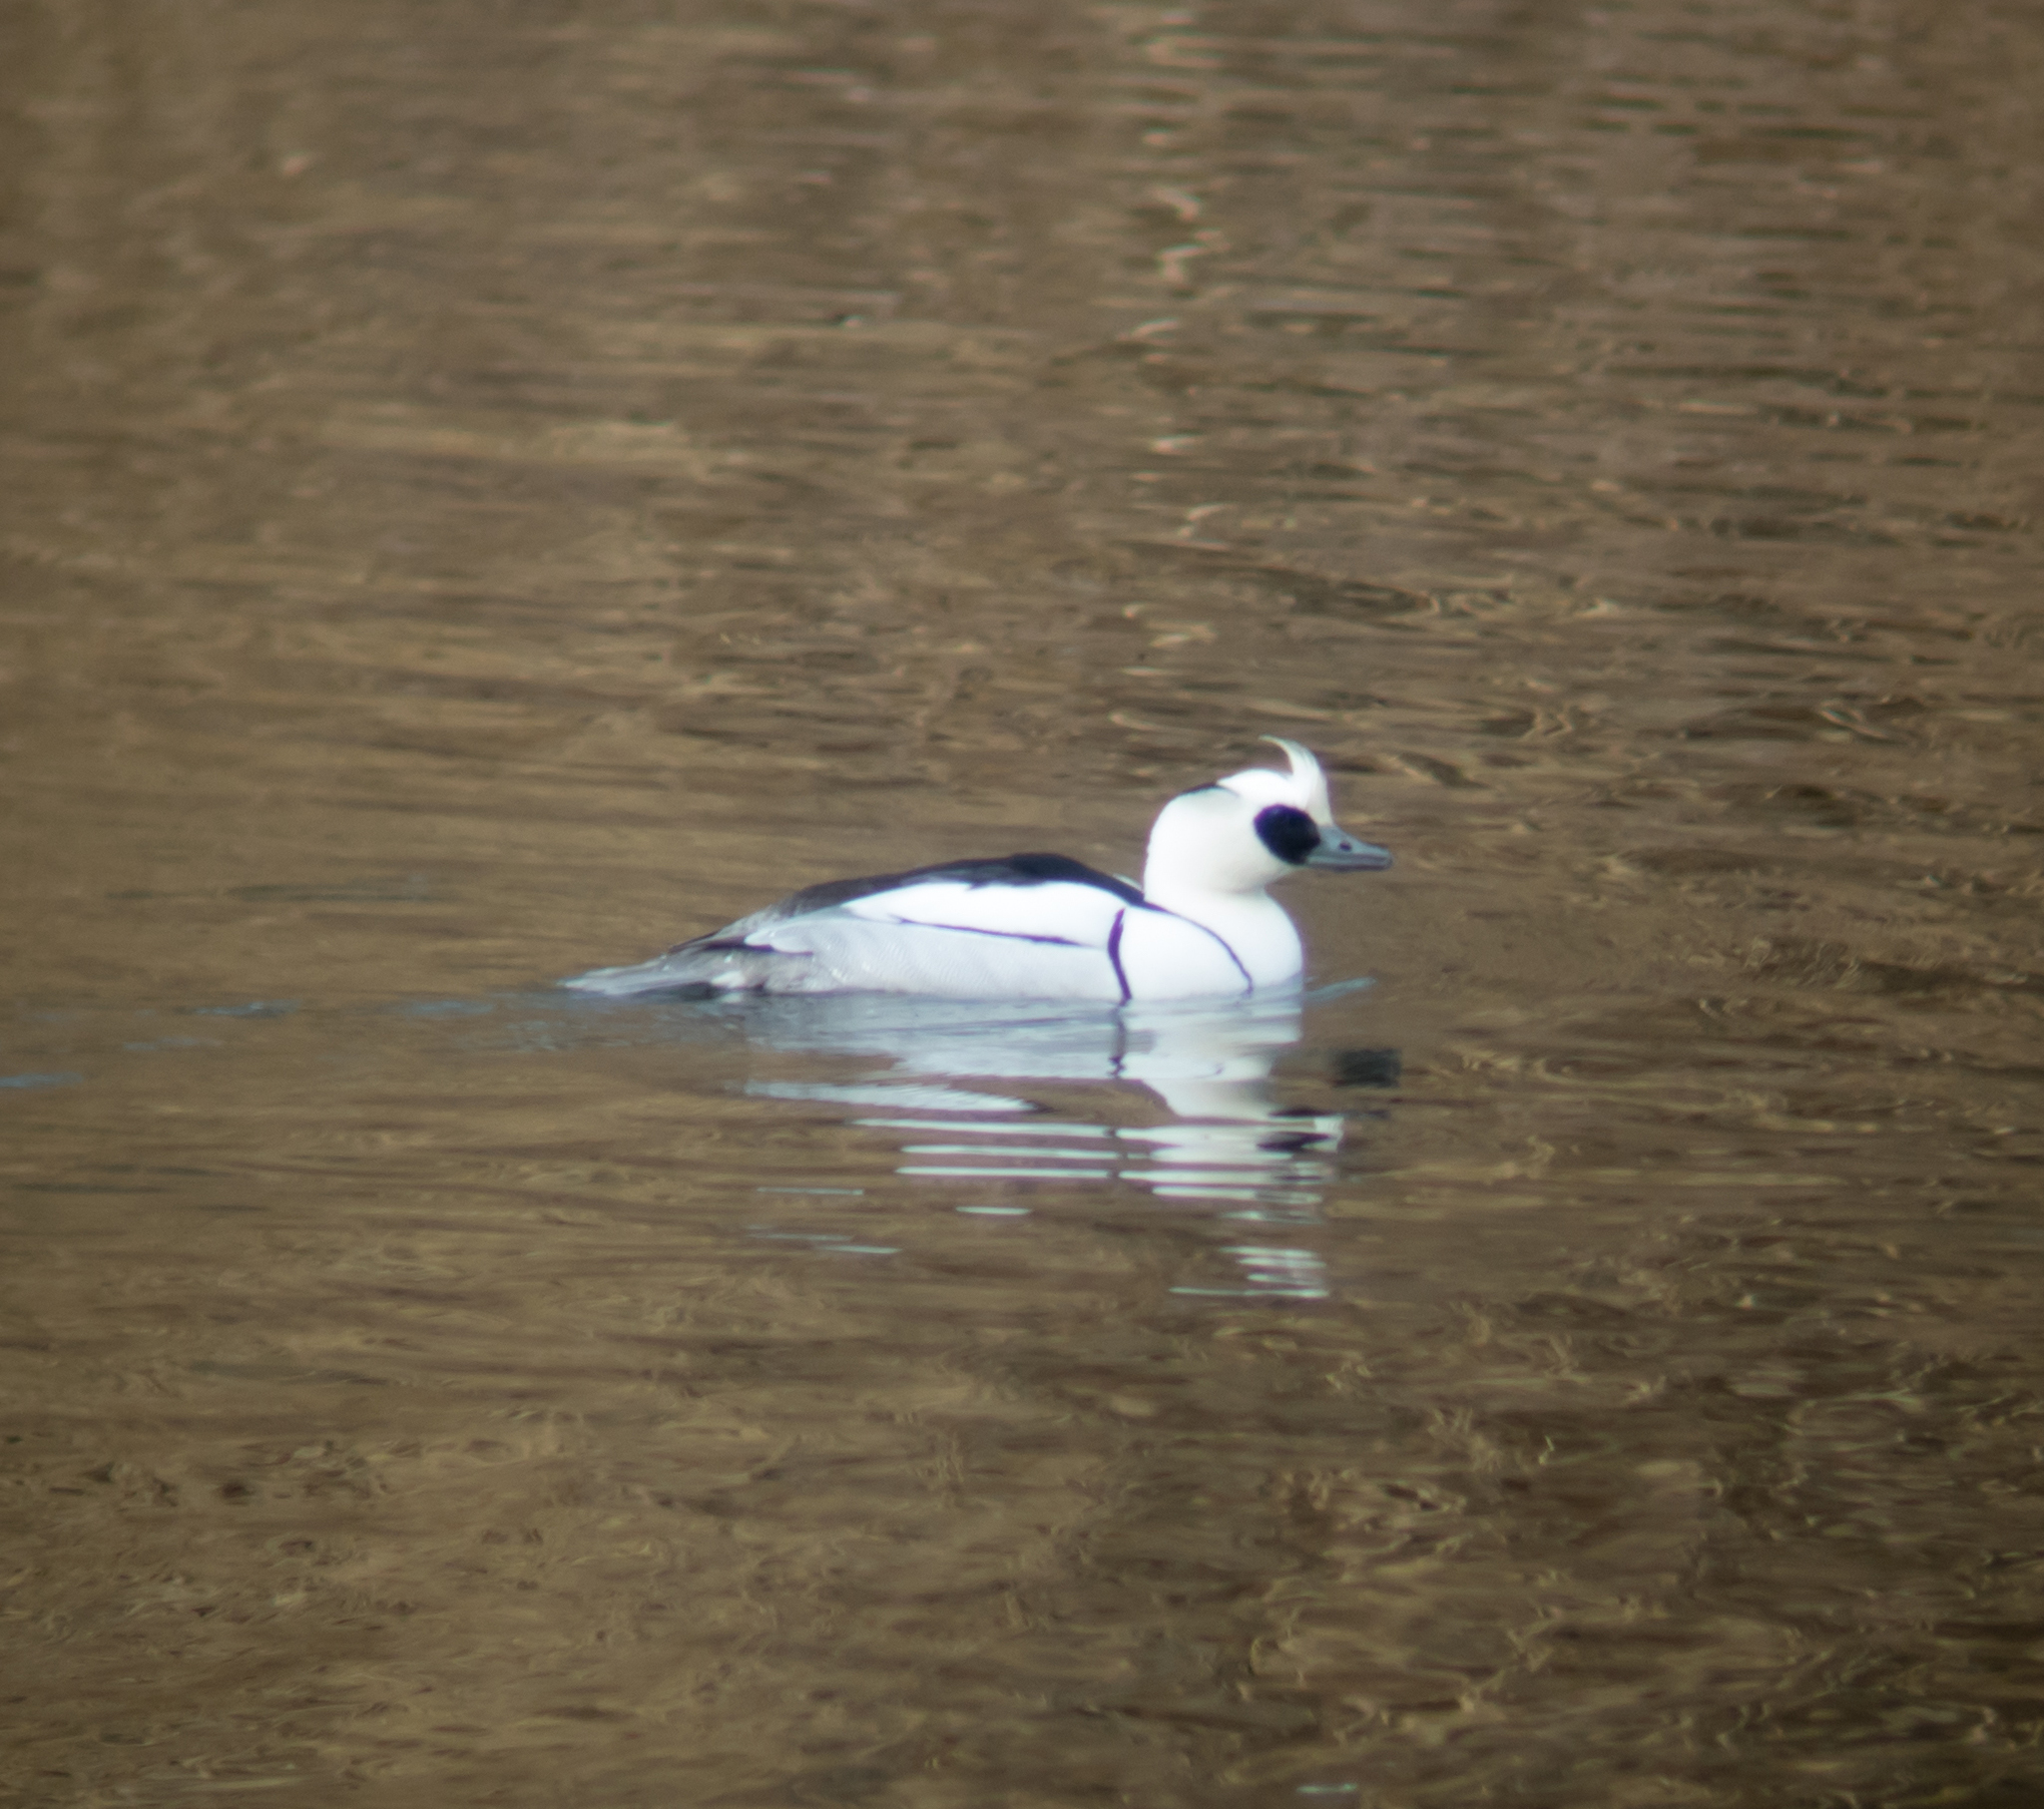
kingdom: Animalia
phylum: Chordata
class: Aves
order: Anseriformes
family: Anatidae
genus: Mergellus
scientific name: Mergellus albellus
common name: Smew
